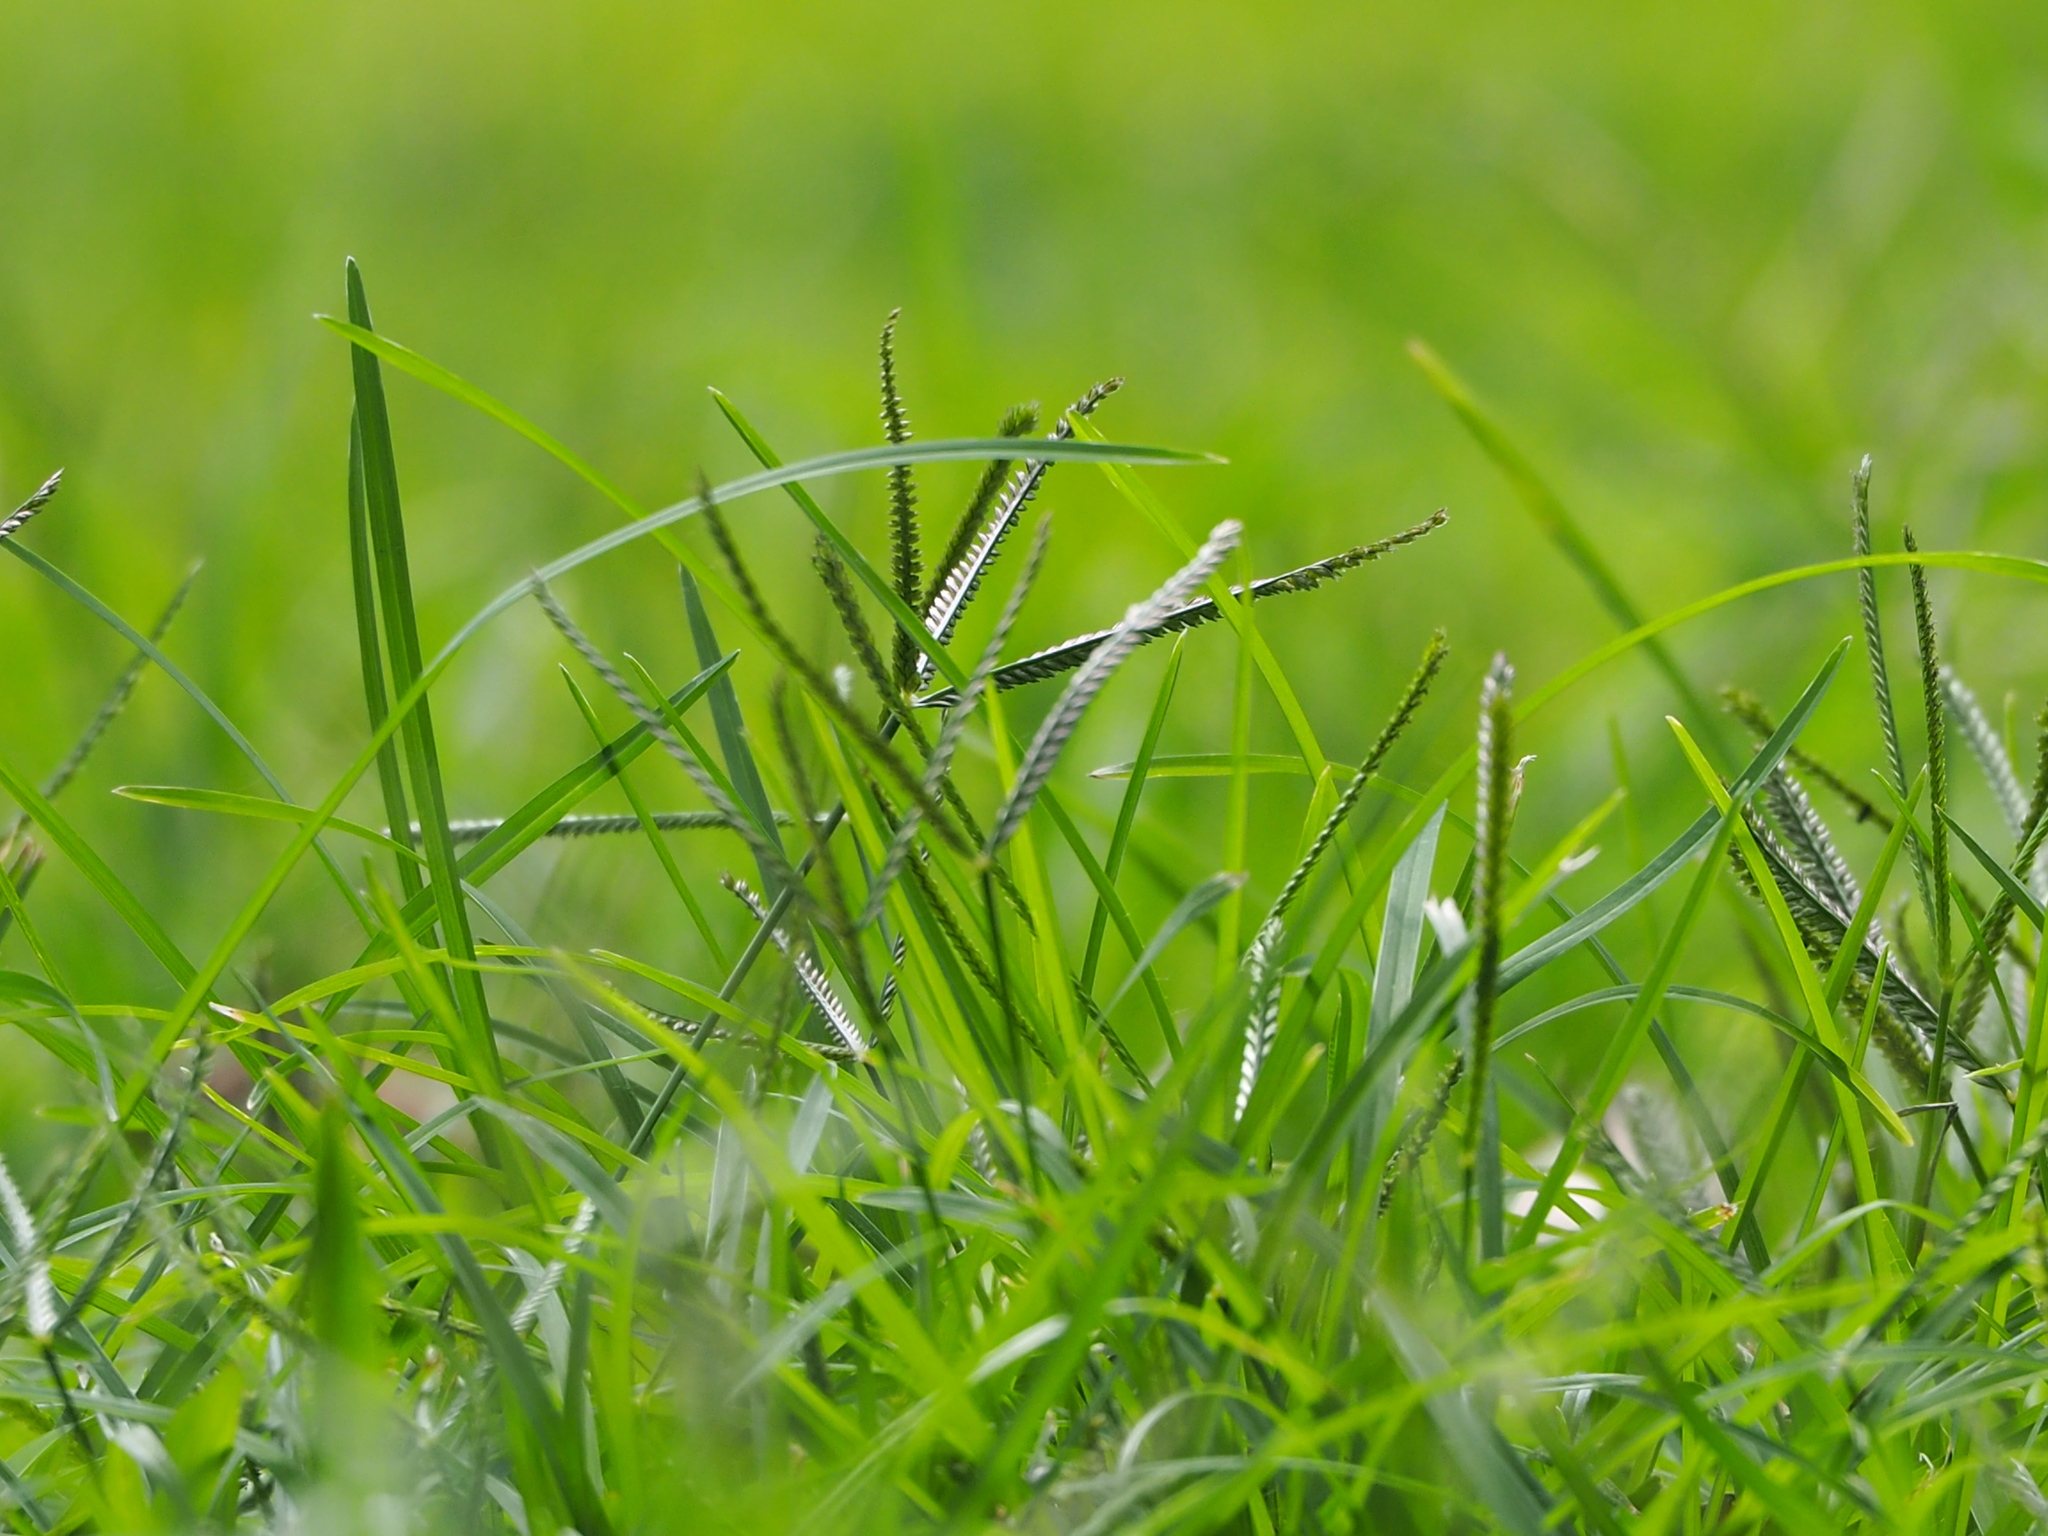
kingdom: Plantae
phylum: Tracheophyta
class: Liliopsida
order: Poales
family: Poaceae
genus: Eleusine
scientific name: Eleusine indica
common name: Yard-grass
